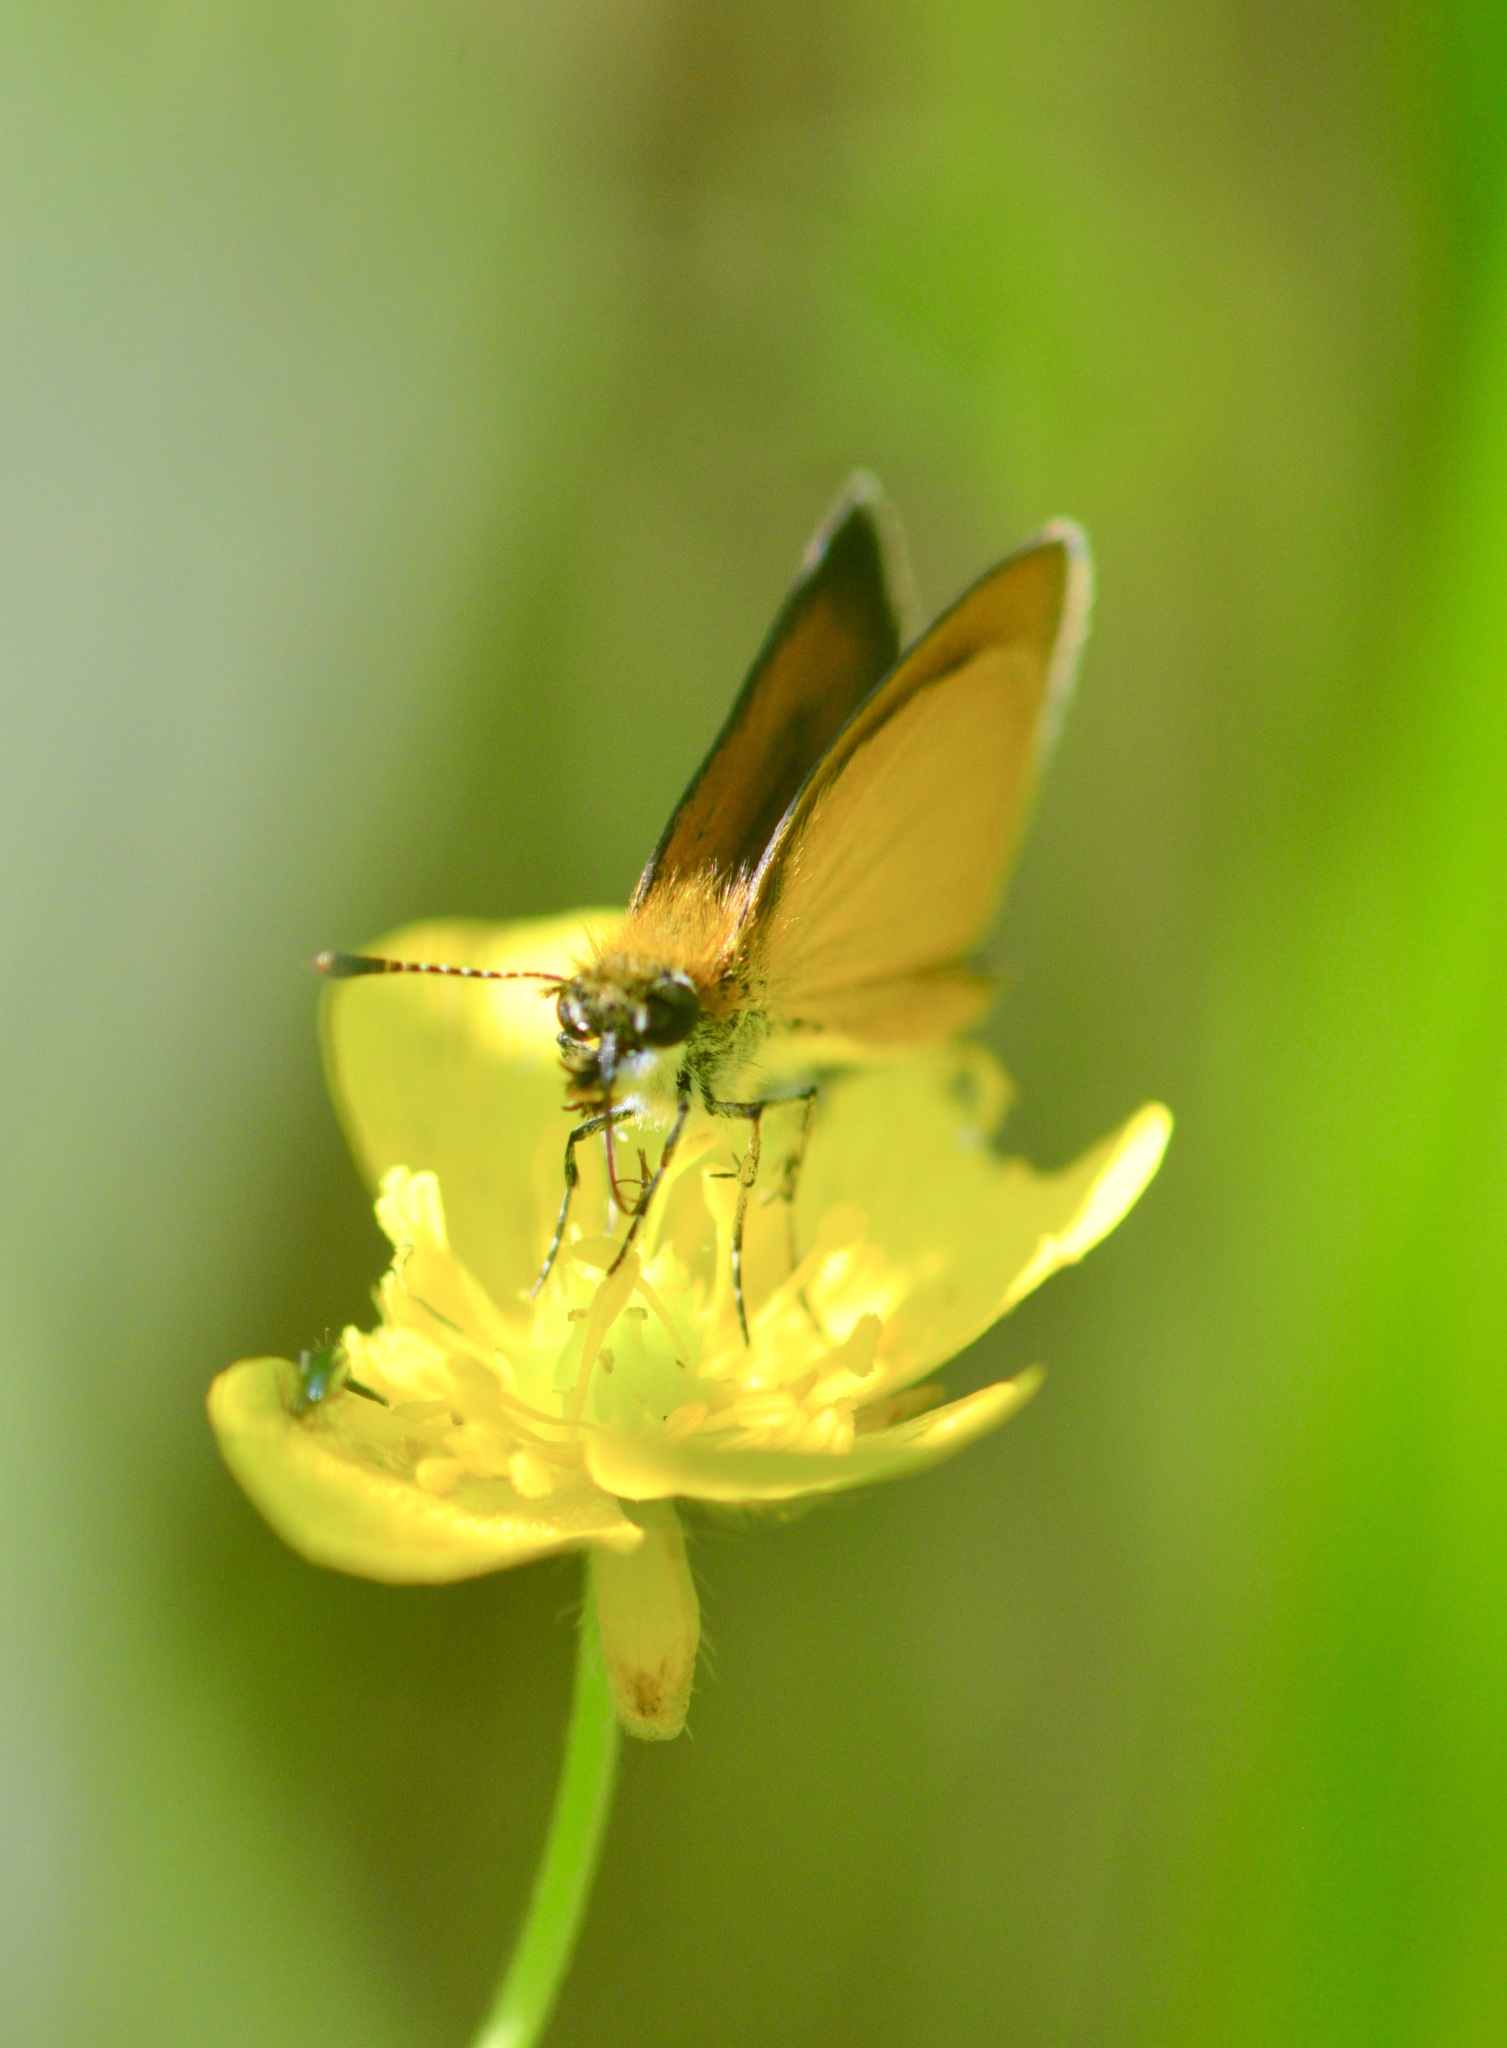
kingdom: Animalia
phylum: Arthropoda
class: Insecta
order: Lepidoptera
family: Hesperiidae
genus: Ancyloxypha
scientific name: Ancyloxypha numitor
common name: Least skipper
